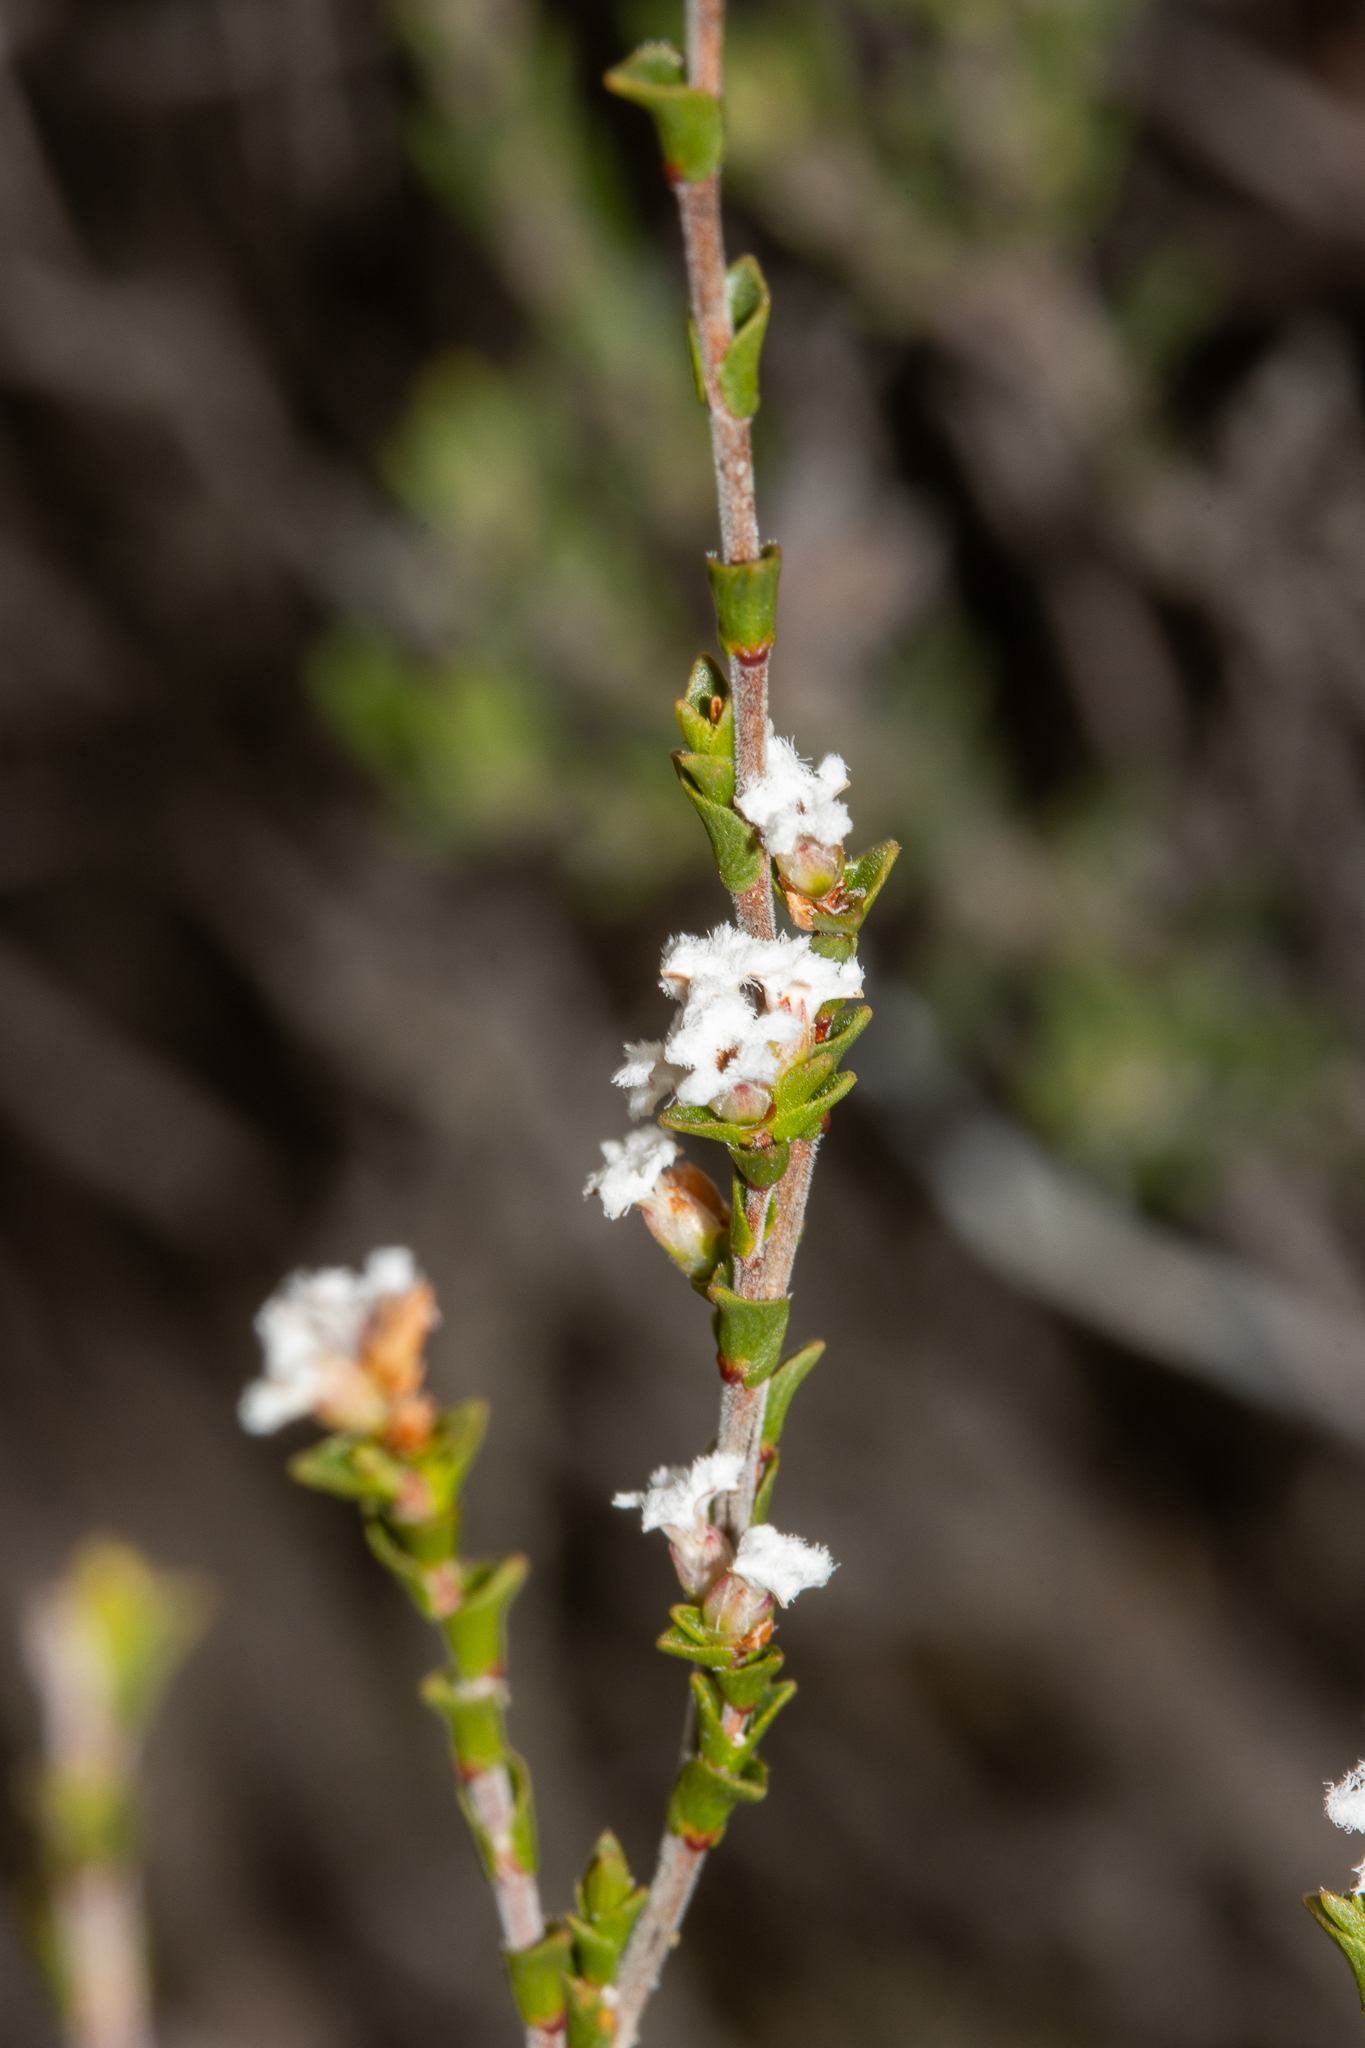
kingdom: Plantae
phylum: Tracheophyta
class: Magnoliopsida
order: Ericales
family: Ericaceae
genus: Leucopogon
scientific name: Leucopogon costatus
